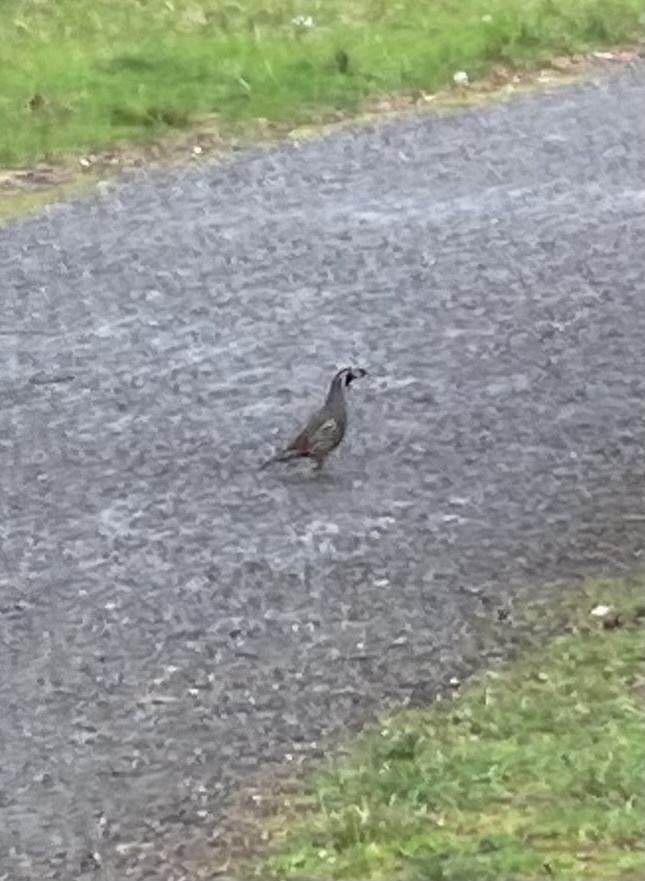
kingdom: Animalia
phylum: Chordata
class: Aves
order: Galliformes
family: Odontophoridae
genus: Callipepla
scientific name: Callipepla californica
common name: California quail
